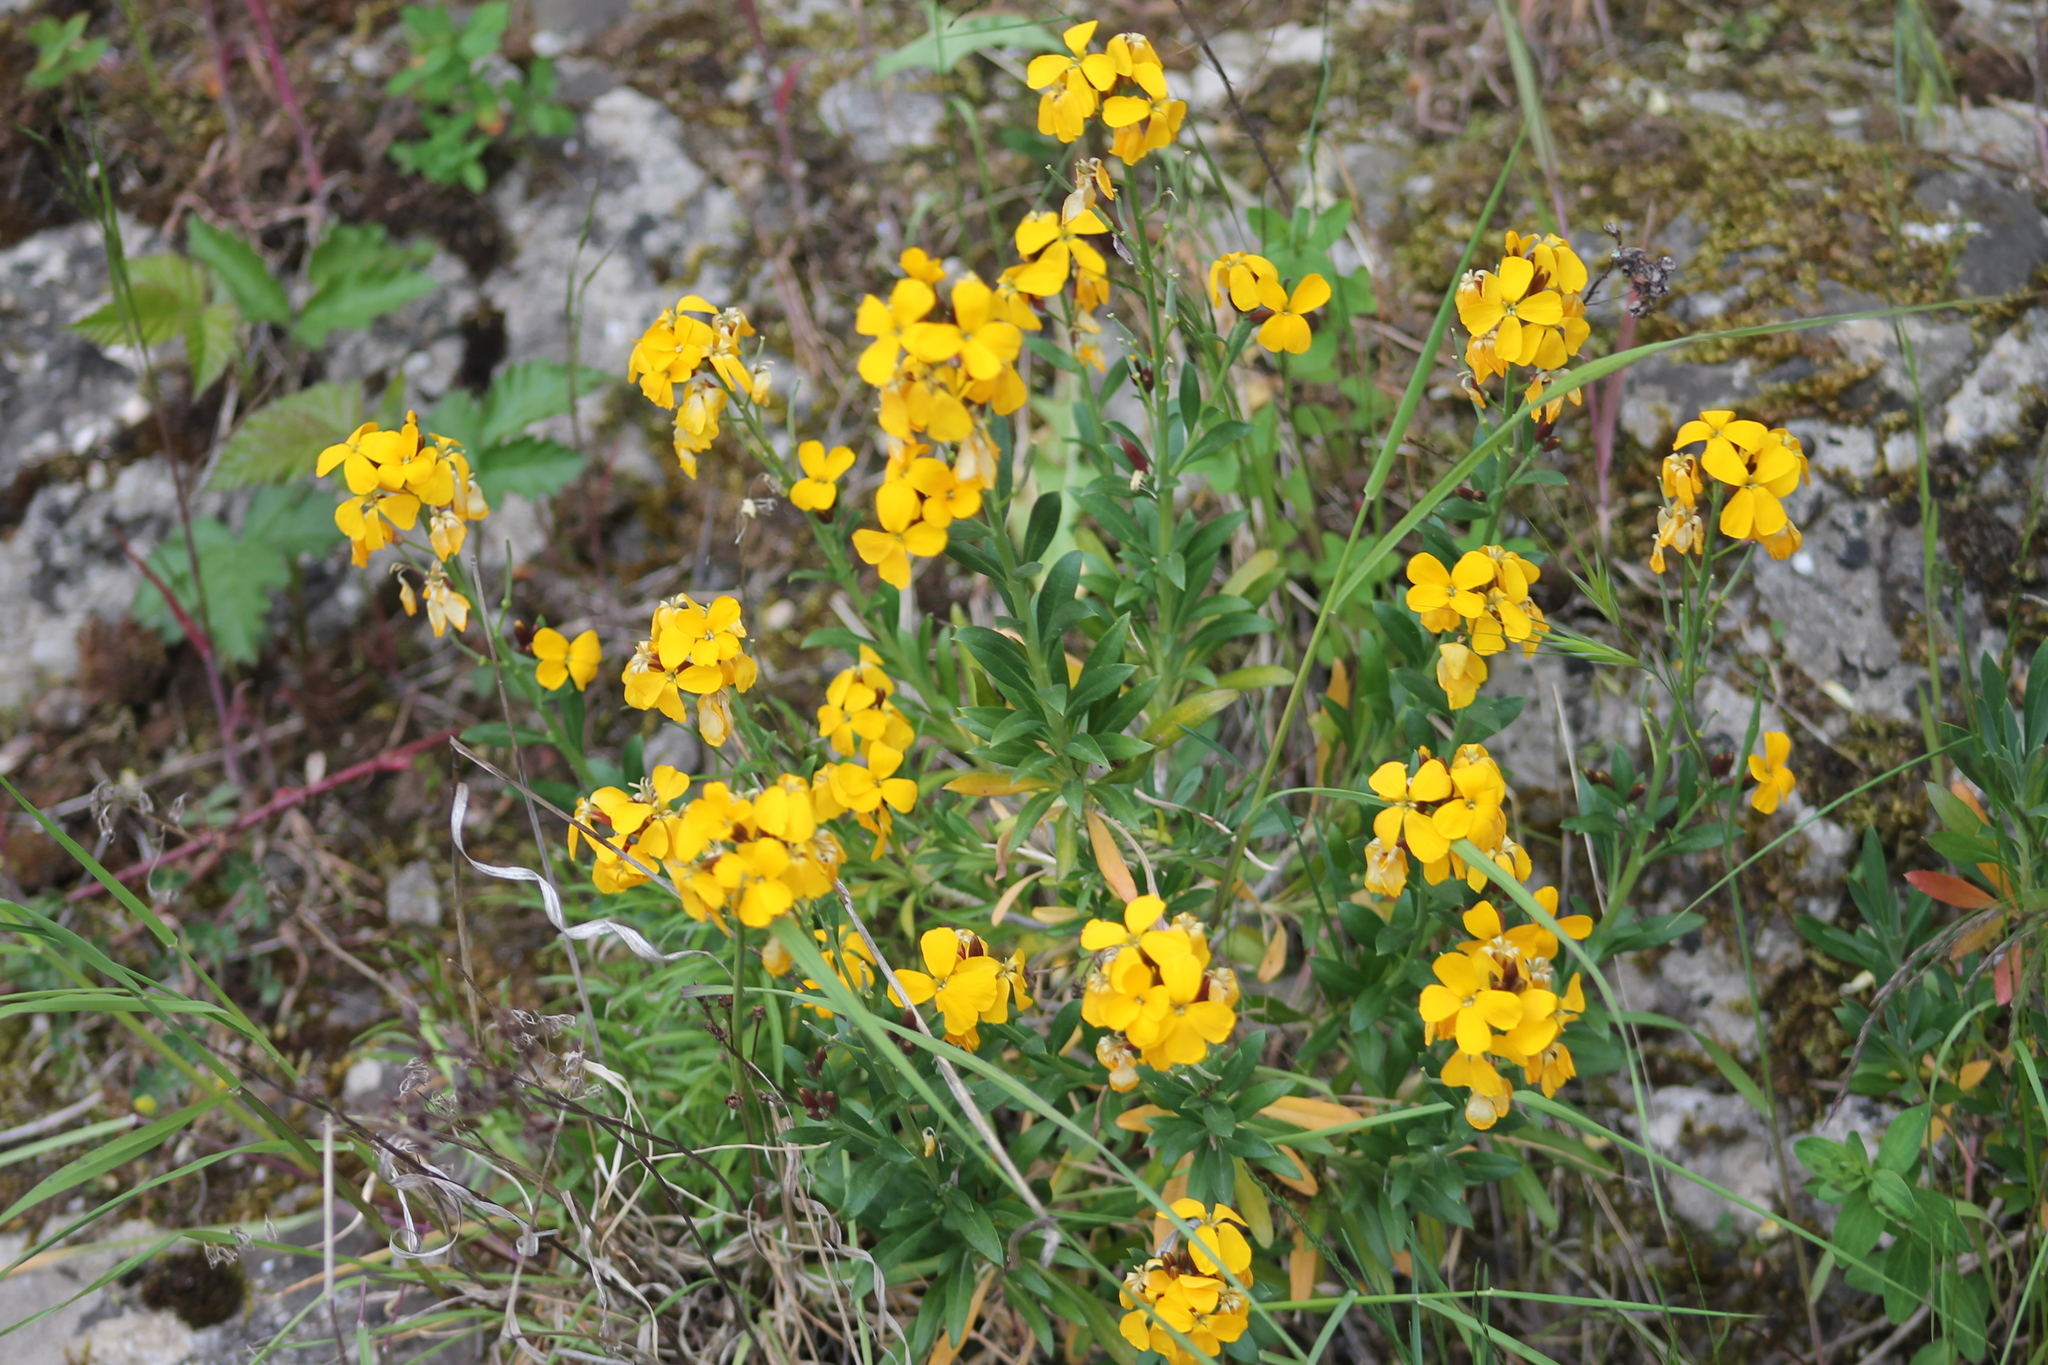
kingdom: Plantae
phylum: Tracheophyta
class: Magnoliopsida
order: Brassicales
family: Brassicaceae
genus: Erysimum
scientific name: Erysimum cheiri
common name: Wallflower
